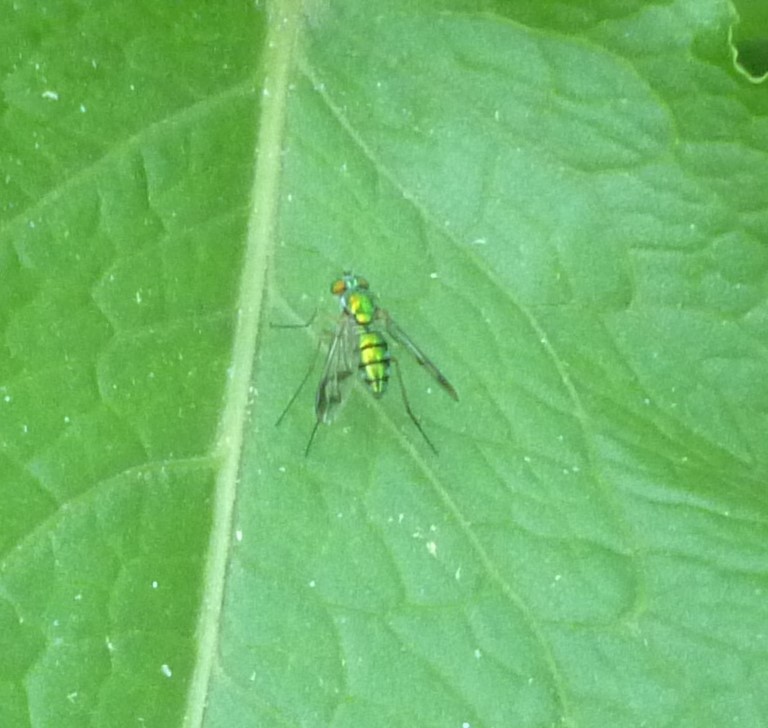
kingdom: Animalia
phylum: Arthropoda
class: Insecta
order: Diptera
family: Dolichopodidae
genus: Condylostylus
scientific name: Condylostylus
